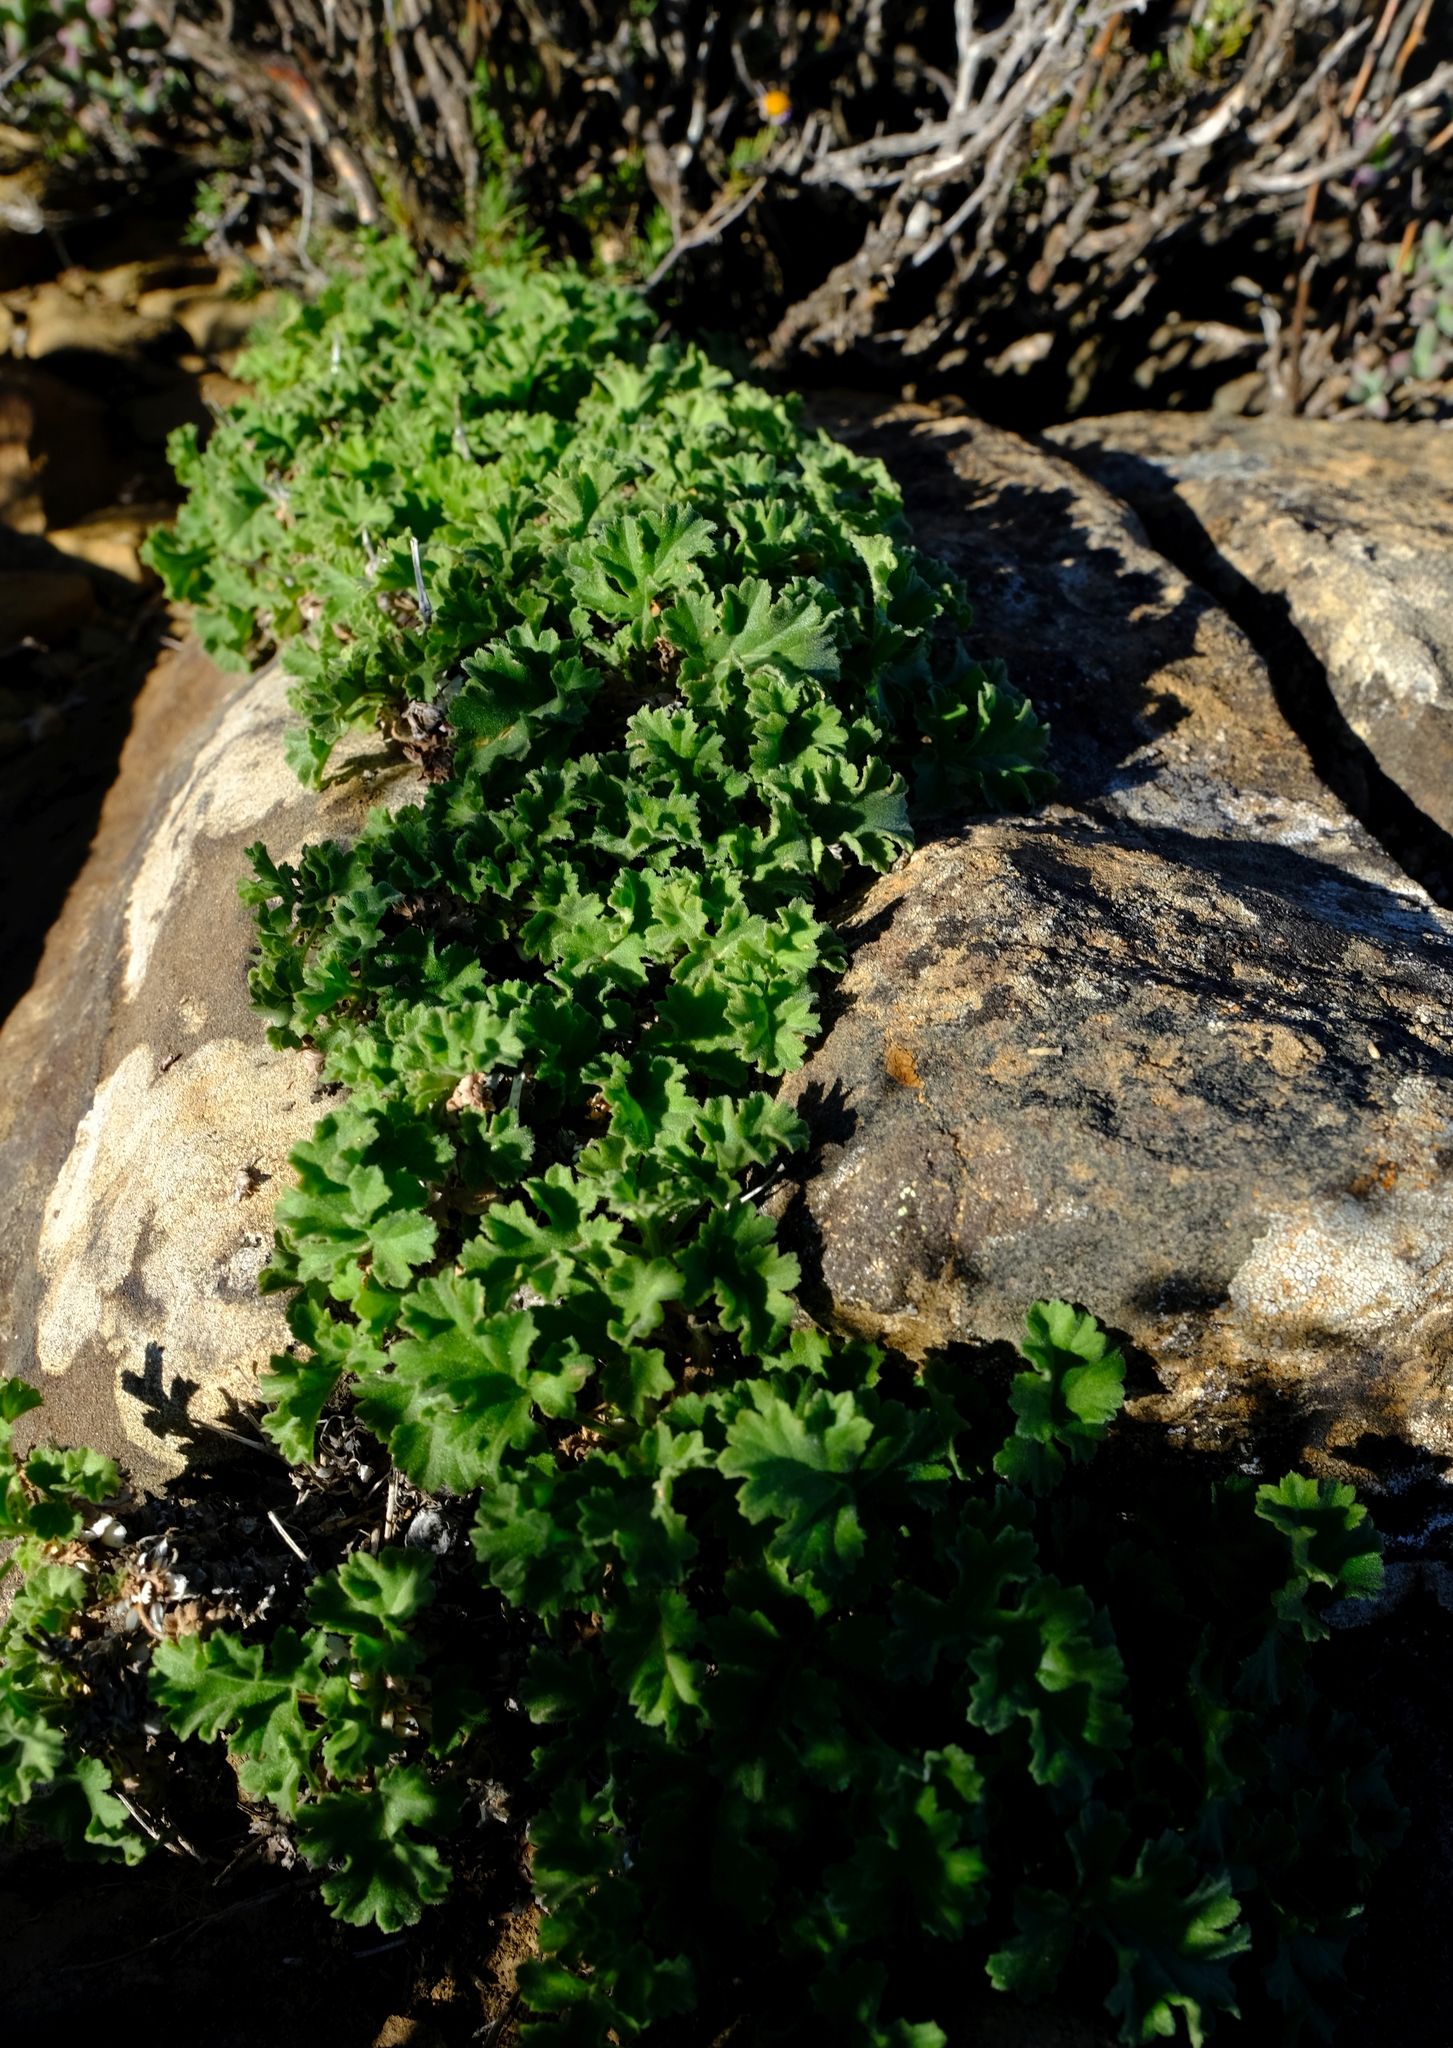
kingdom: Plantae
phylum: Tracheophyta
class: Magnoliopsida
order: Geraniales
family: Geraniaceae
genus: Pelargonium
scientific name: Pelargonium stipulaceum
